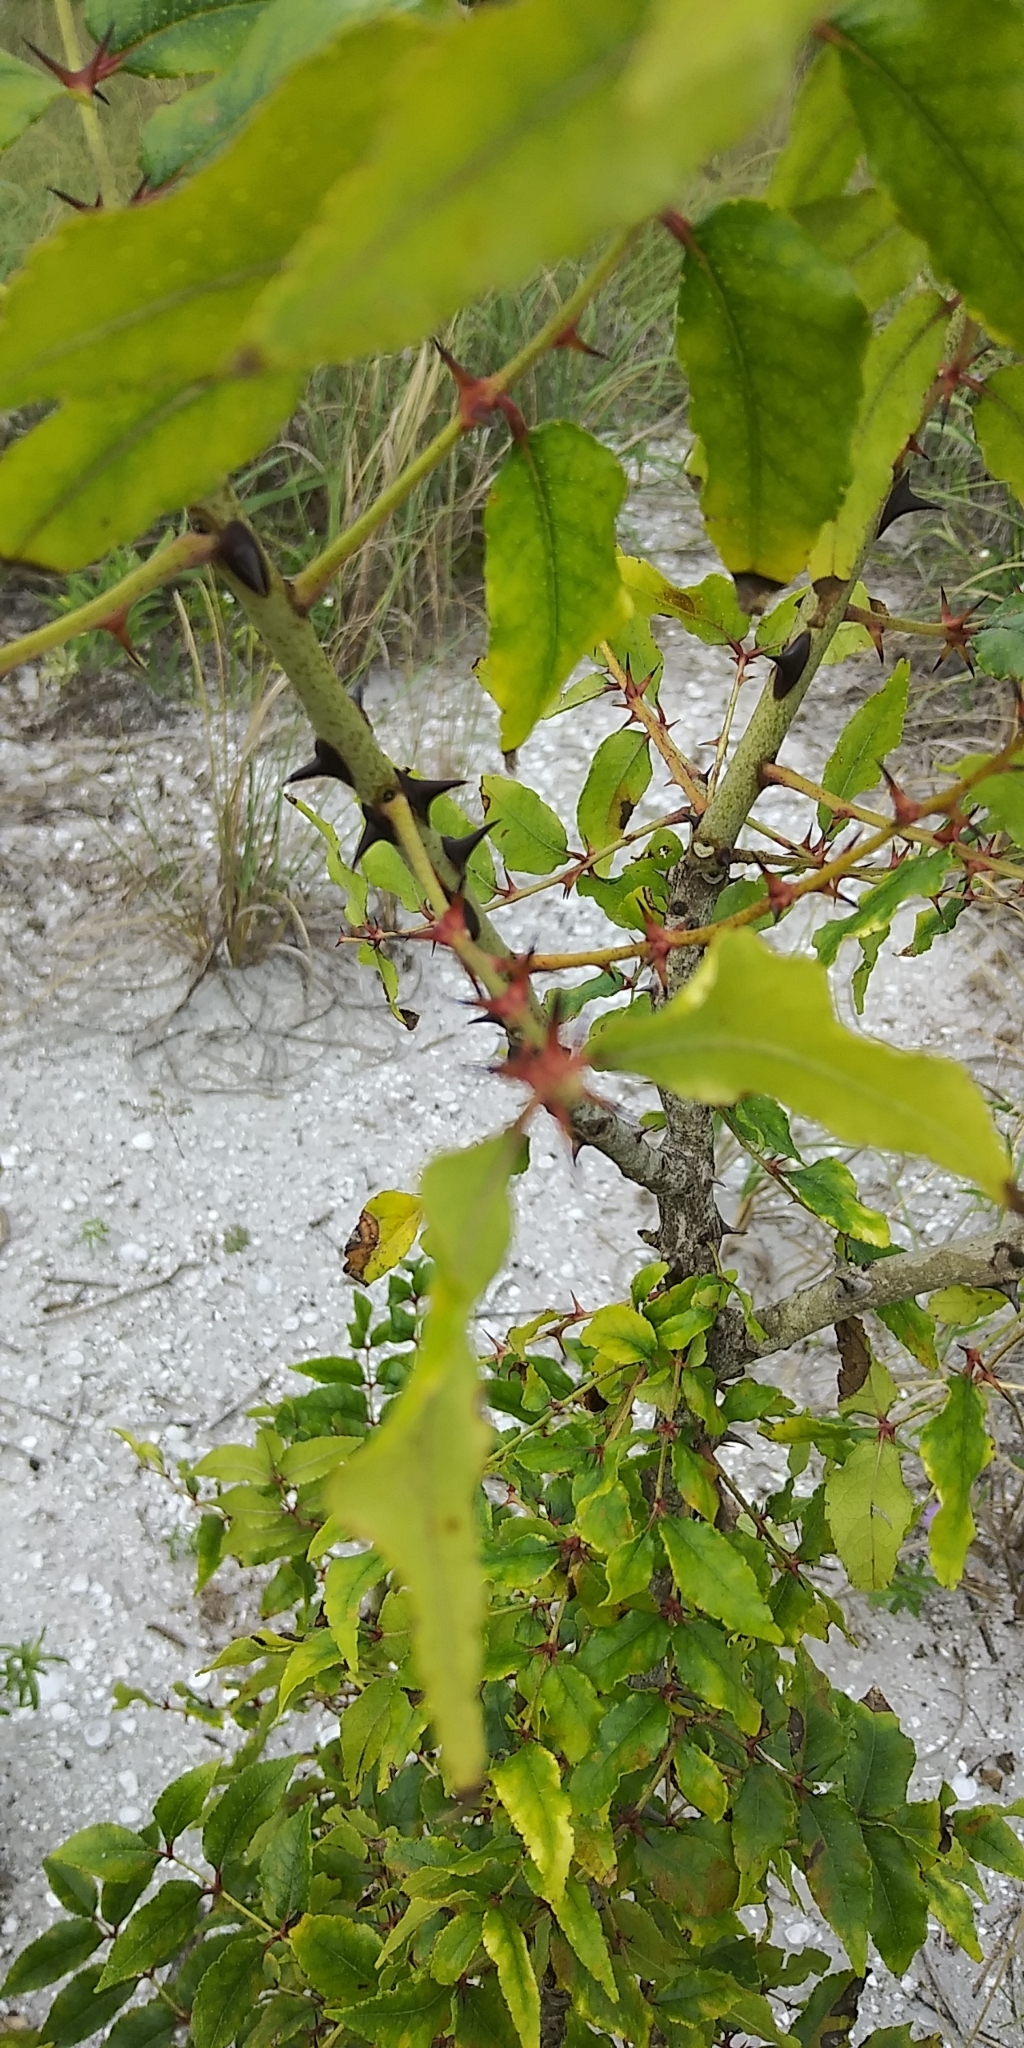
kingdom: Plantae
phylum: Tracheophyta
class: Magnoliopsida
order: Sapindales
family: Rutaceae
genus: Zanthoxylum
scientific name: Zanthoxylum clava-herculis
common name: Hercules'-club
